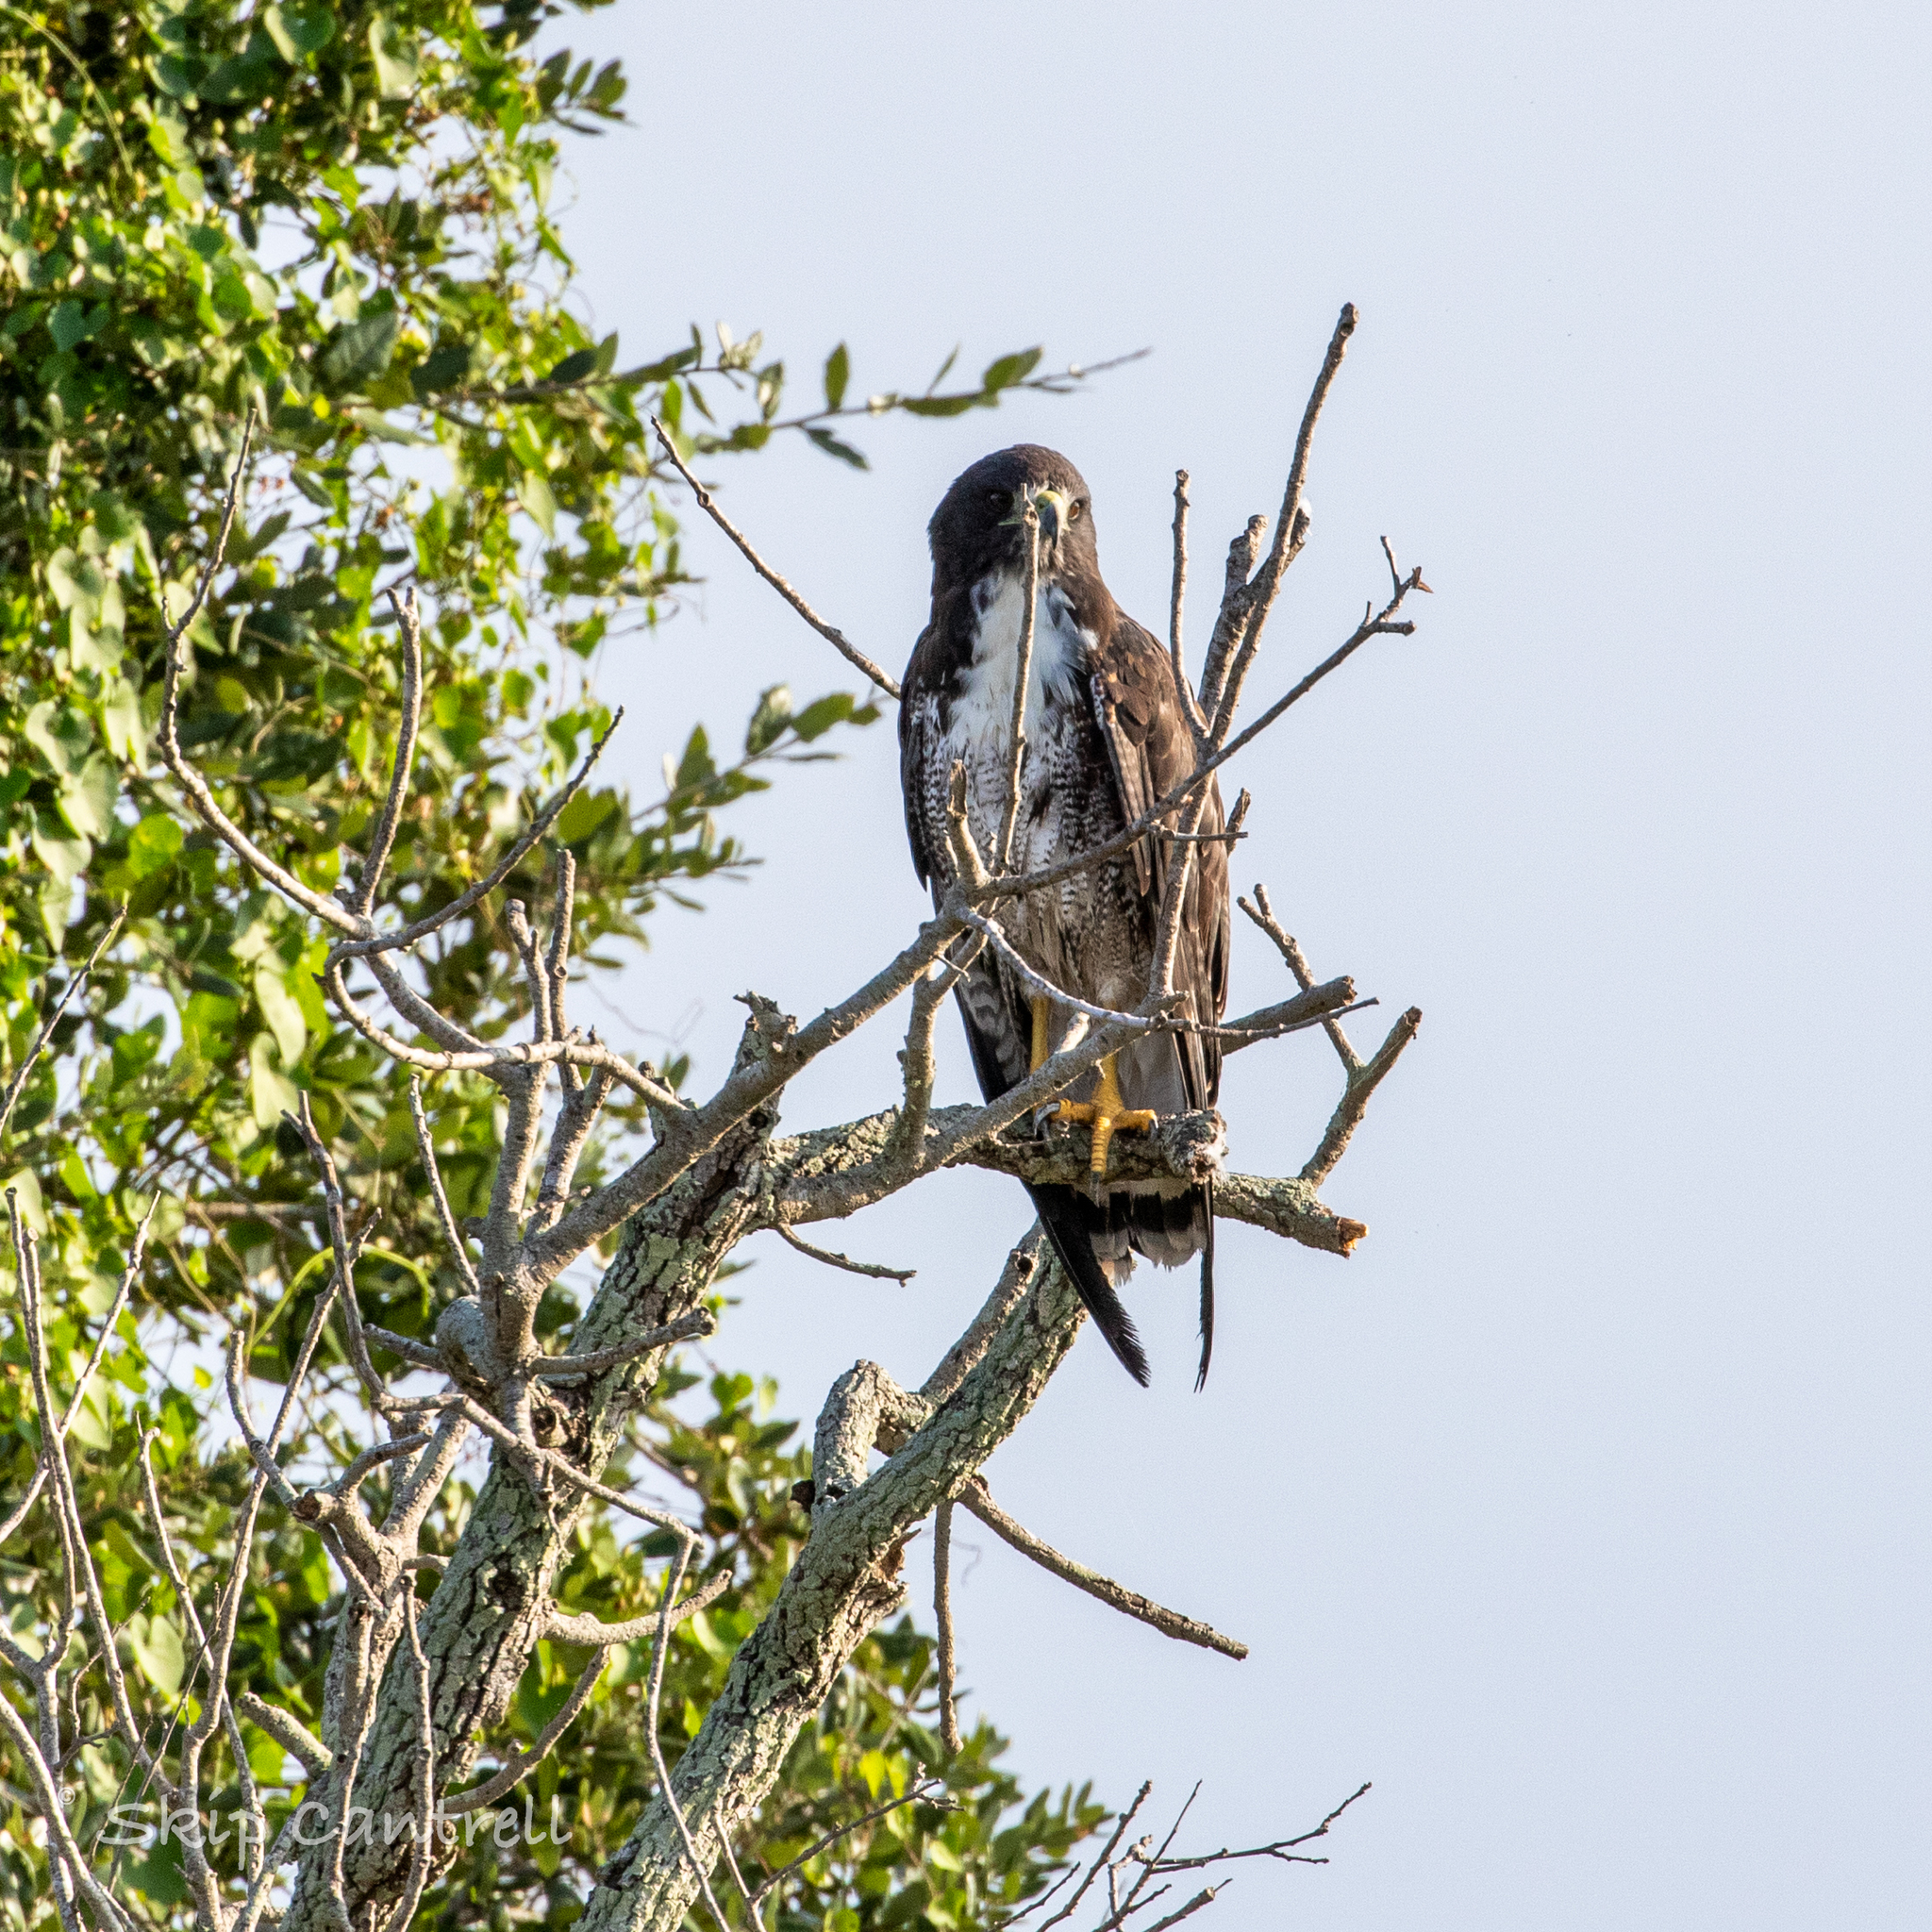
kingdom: Animalia
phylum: Chordata
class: Aves
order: Accipitriformes
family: Accipitridae
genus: Buteo
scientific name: Buteo albicaudatus
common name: White-tailed hawk
